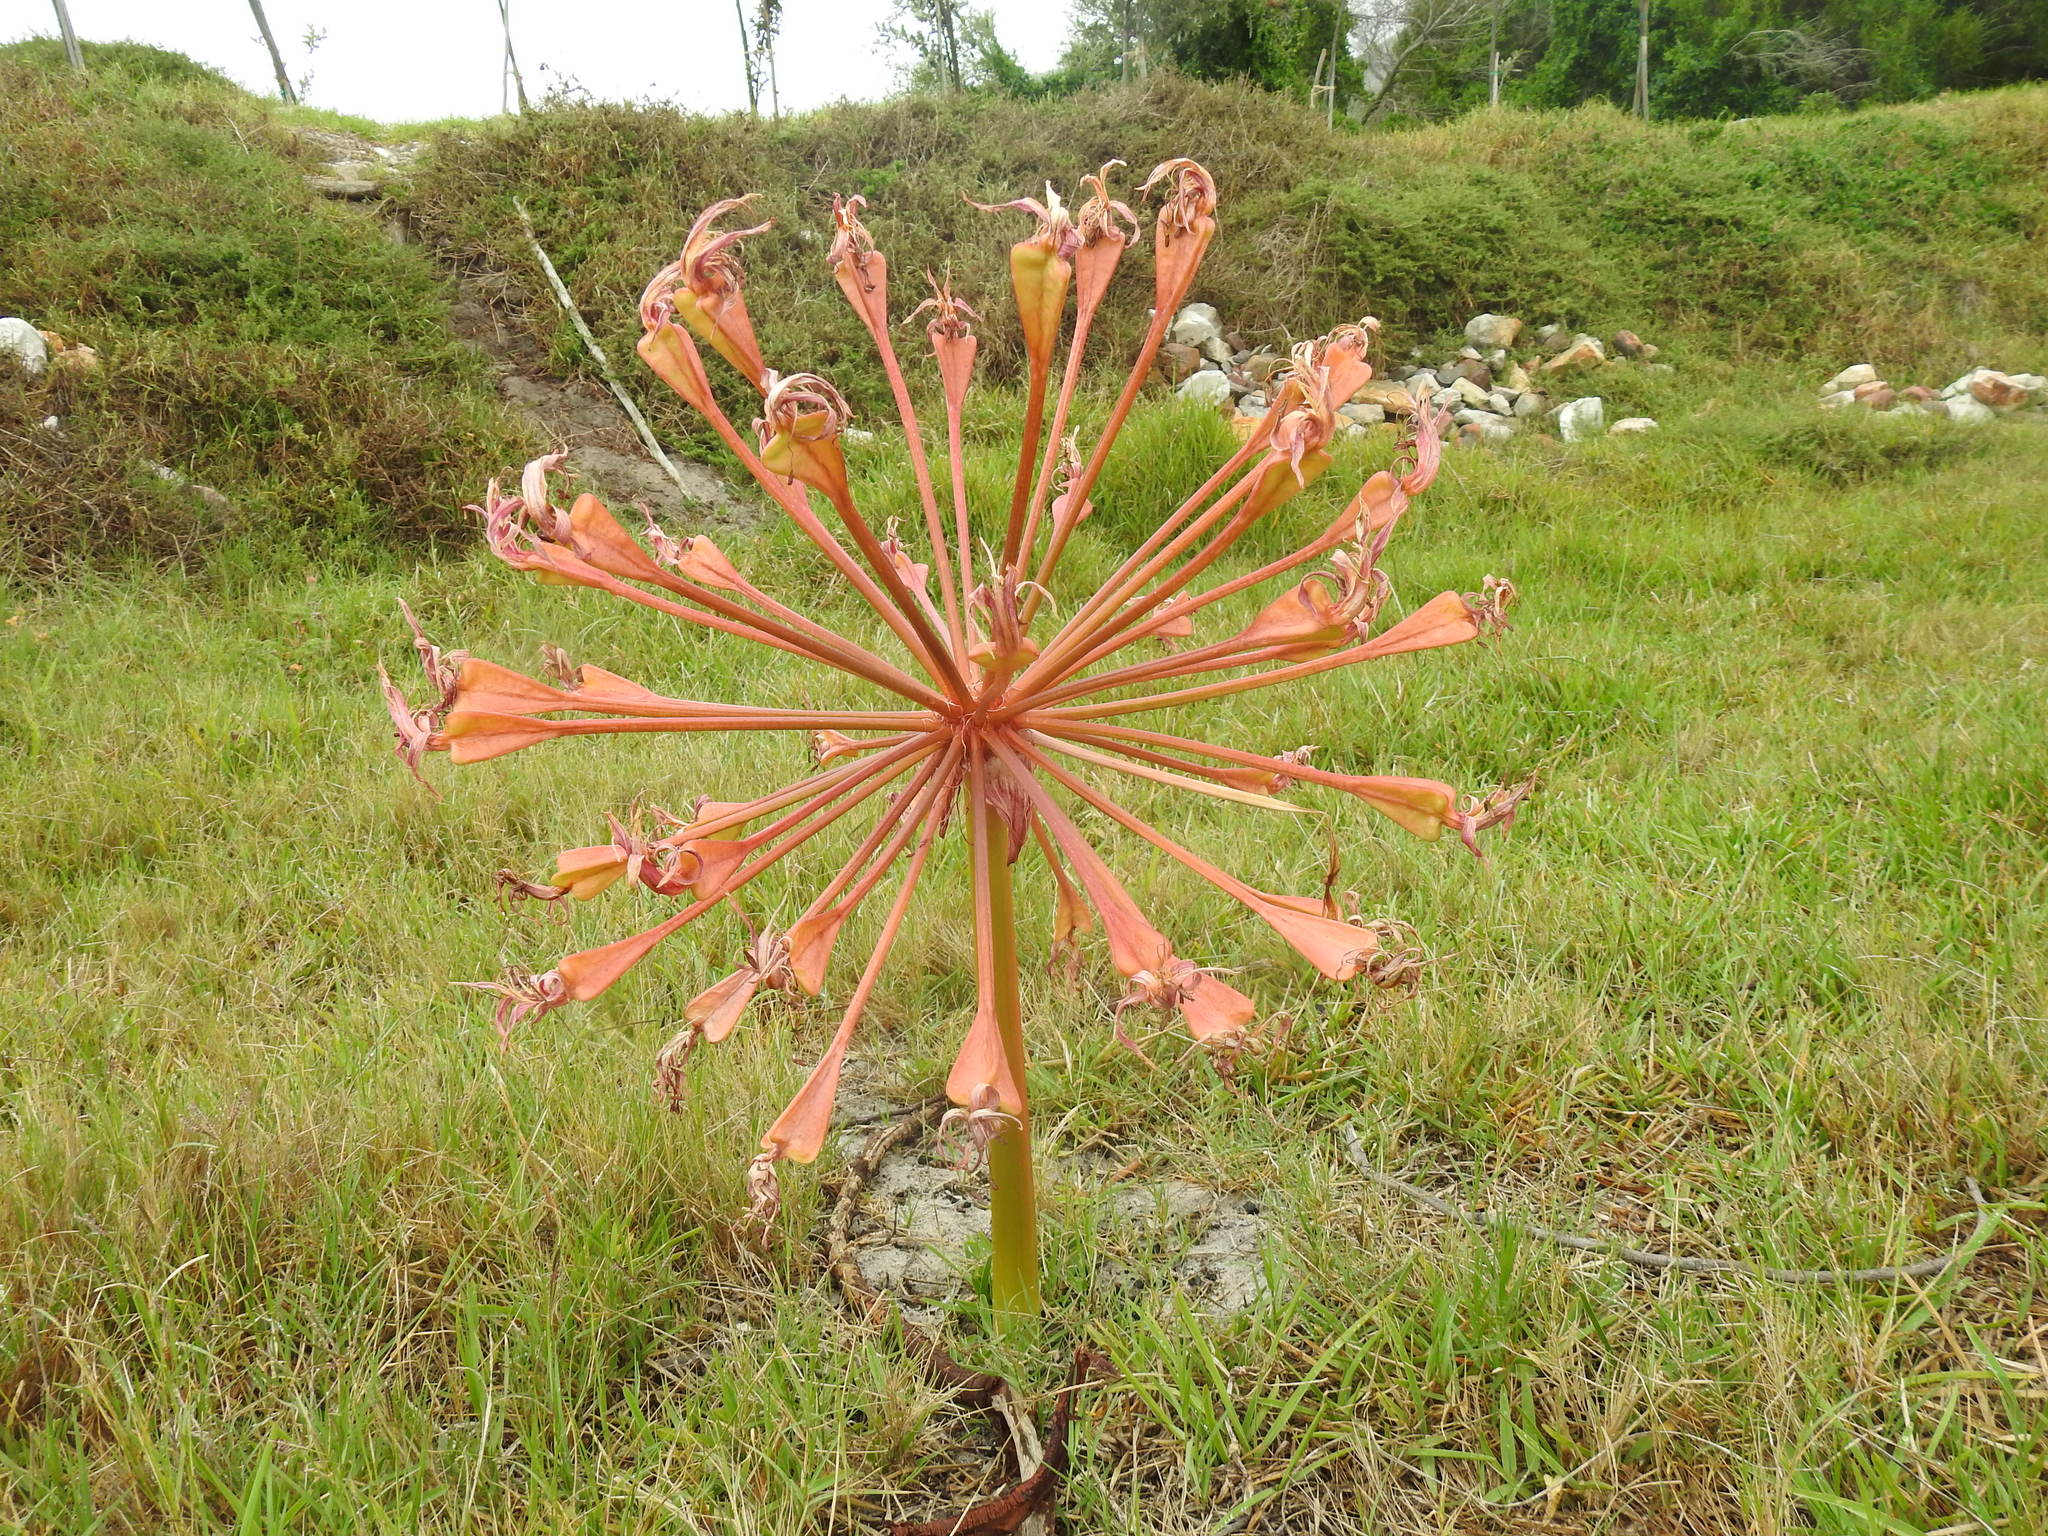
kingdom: Plantae
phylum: Tracheophyta
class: Liliopsida
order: Asparagales
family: Amaryllidaceae
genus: Brunsvigia
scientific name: Brunsvigia orientalis
